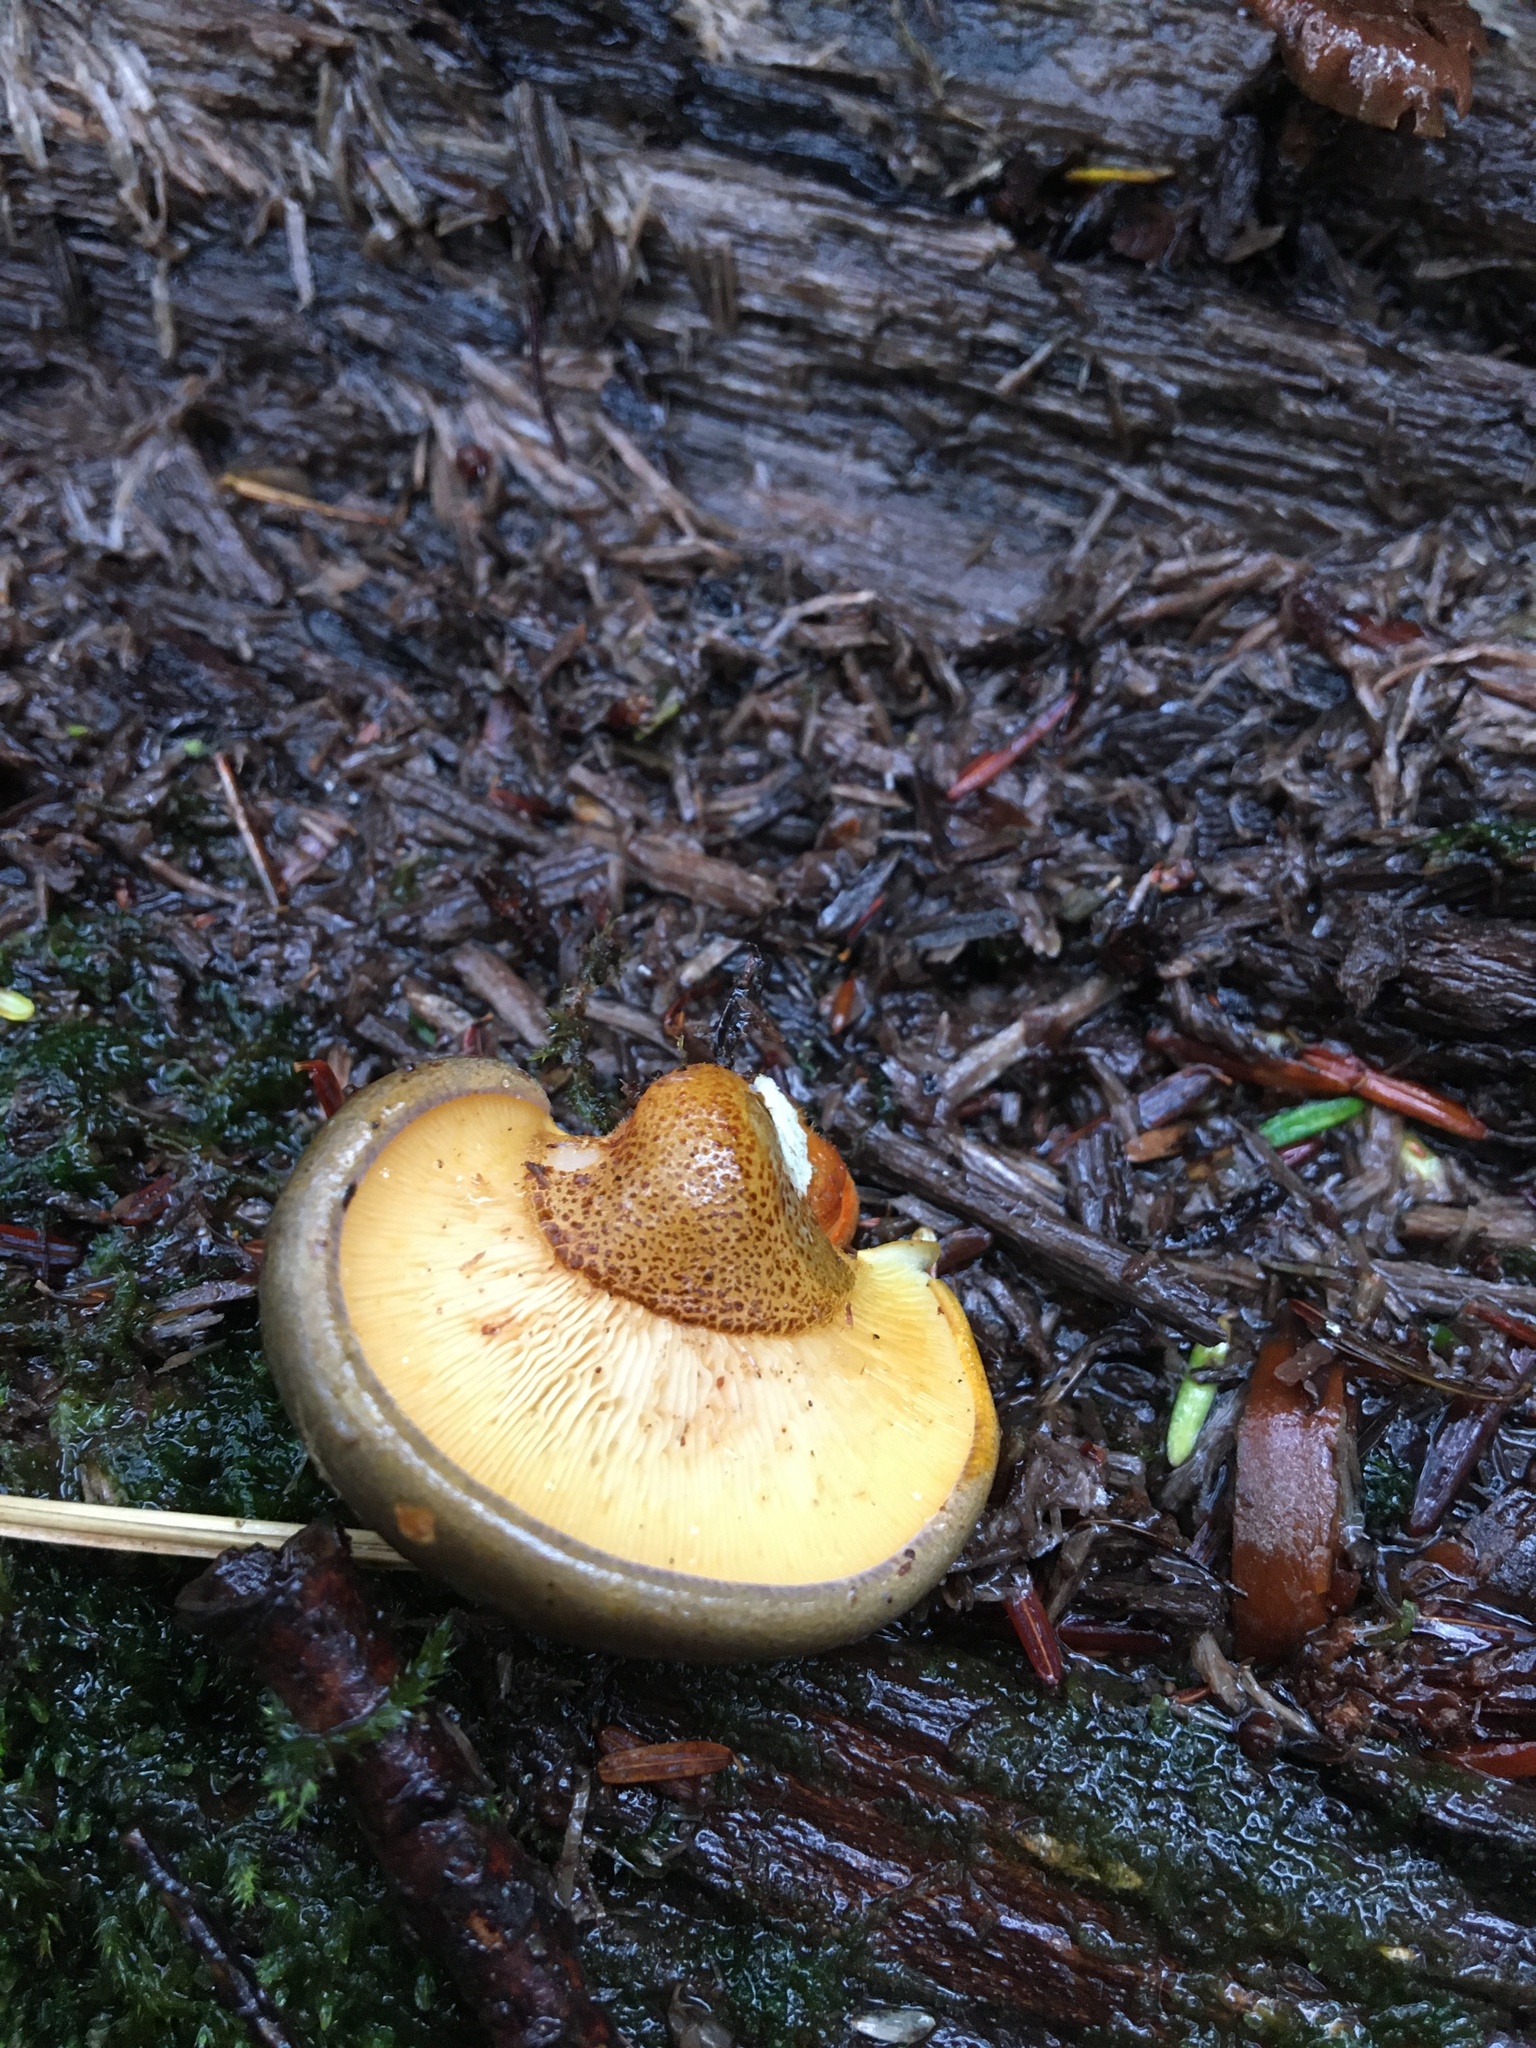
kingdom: Fungi
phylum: Basidiomycota
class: Agaricomycetes
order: Agaricales
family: Sarcomyxaceae
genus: Sarcomyxa
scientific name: Sarcomyxa serotina
